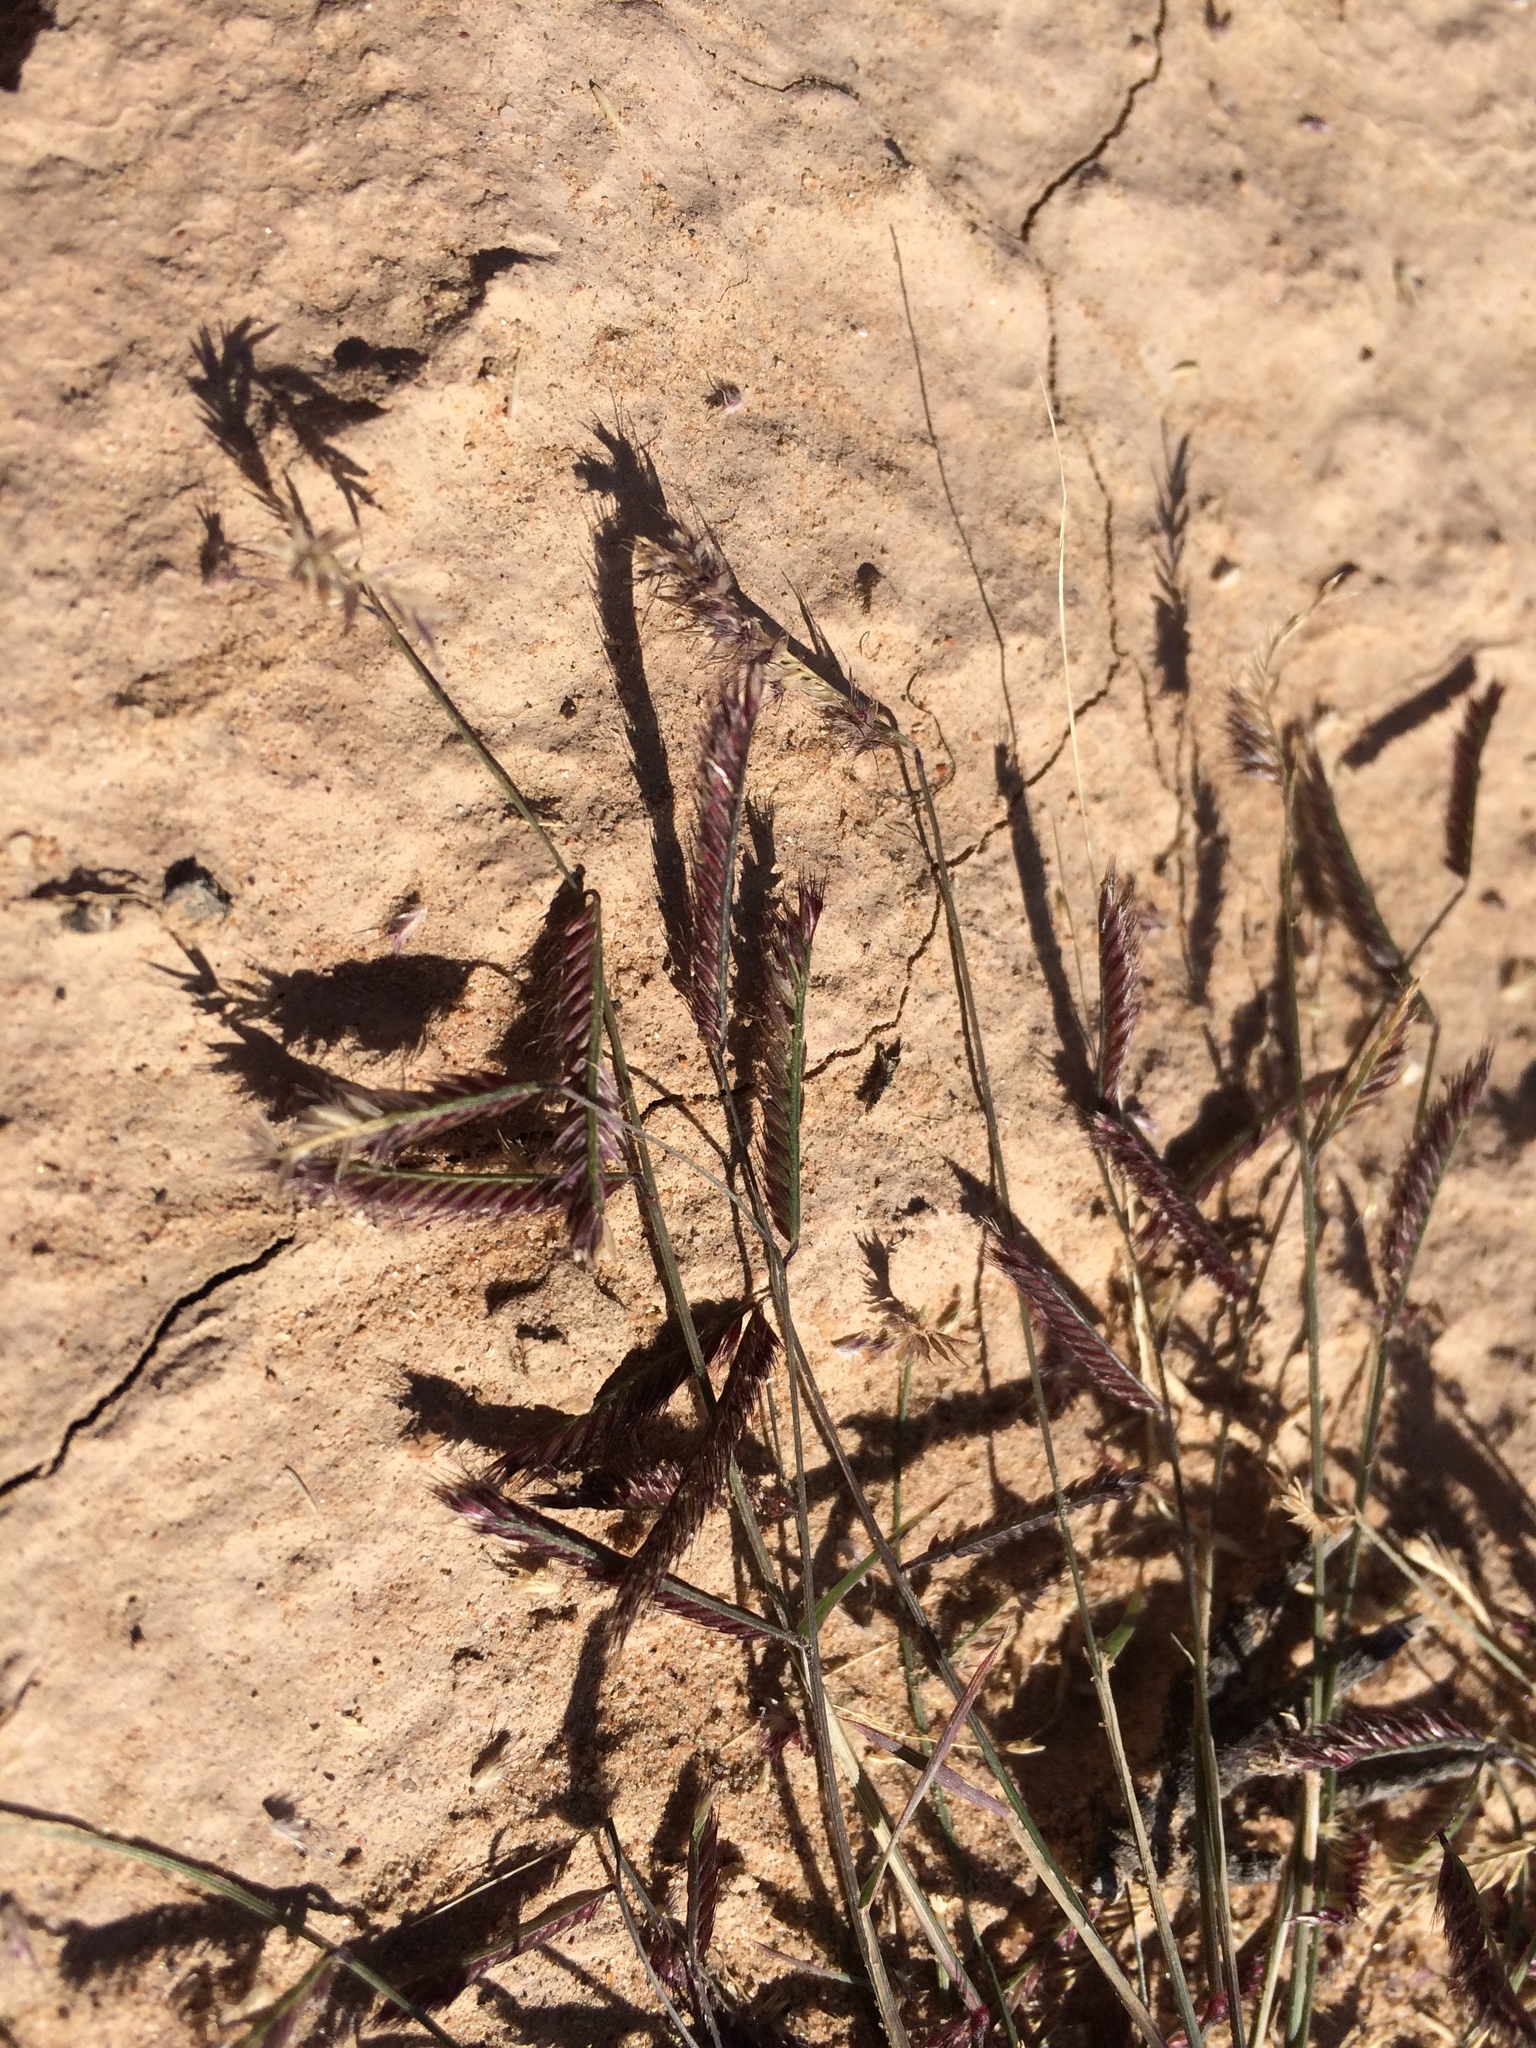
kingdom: Plantae
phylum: Tracheophyta
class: Liliopsida
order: Poales
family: Poaceae
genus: Bouteloua
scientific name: Bouteloua barbata
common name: Six-weeks grama
